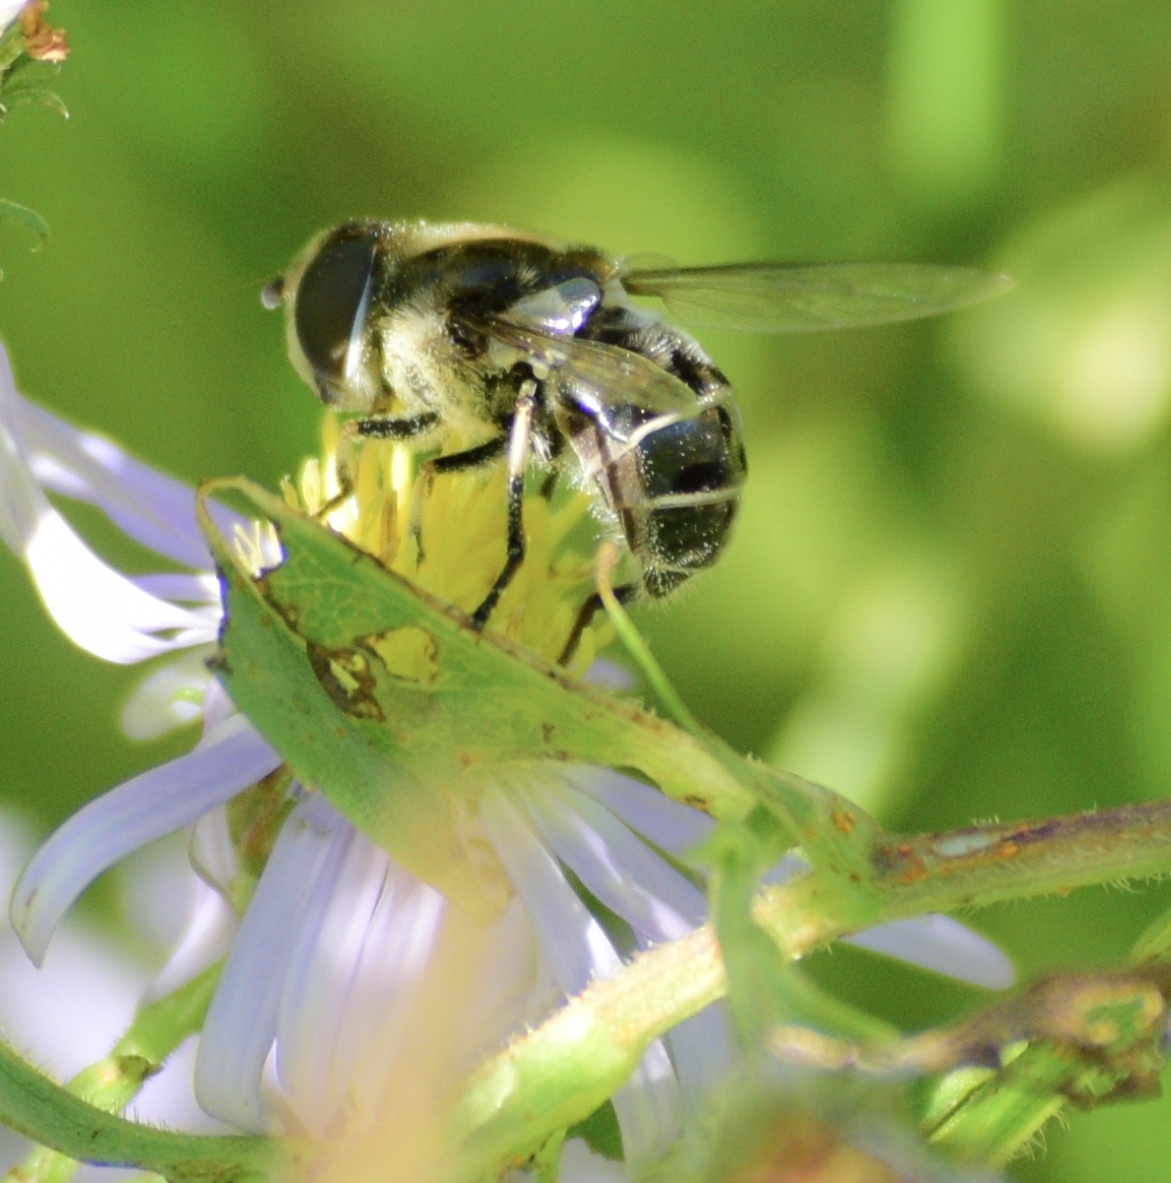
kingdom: Animalia
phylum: Arthropoda
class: Insecta
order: Diptera
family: Syrphidae
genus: Eristalis
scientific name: Eristalis dimidiata
